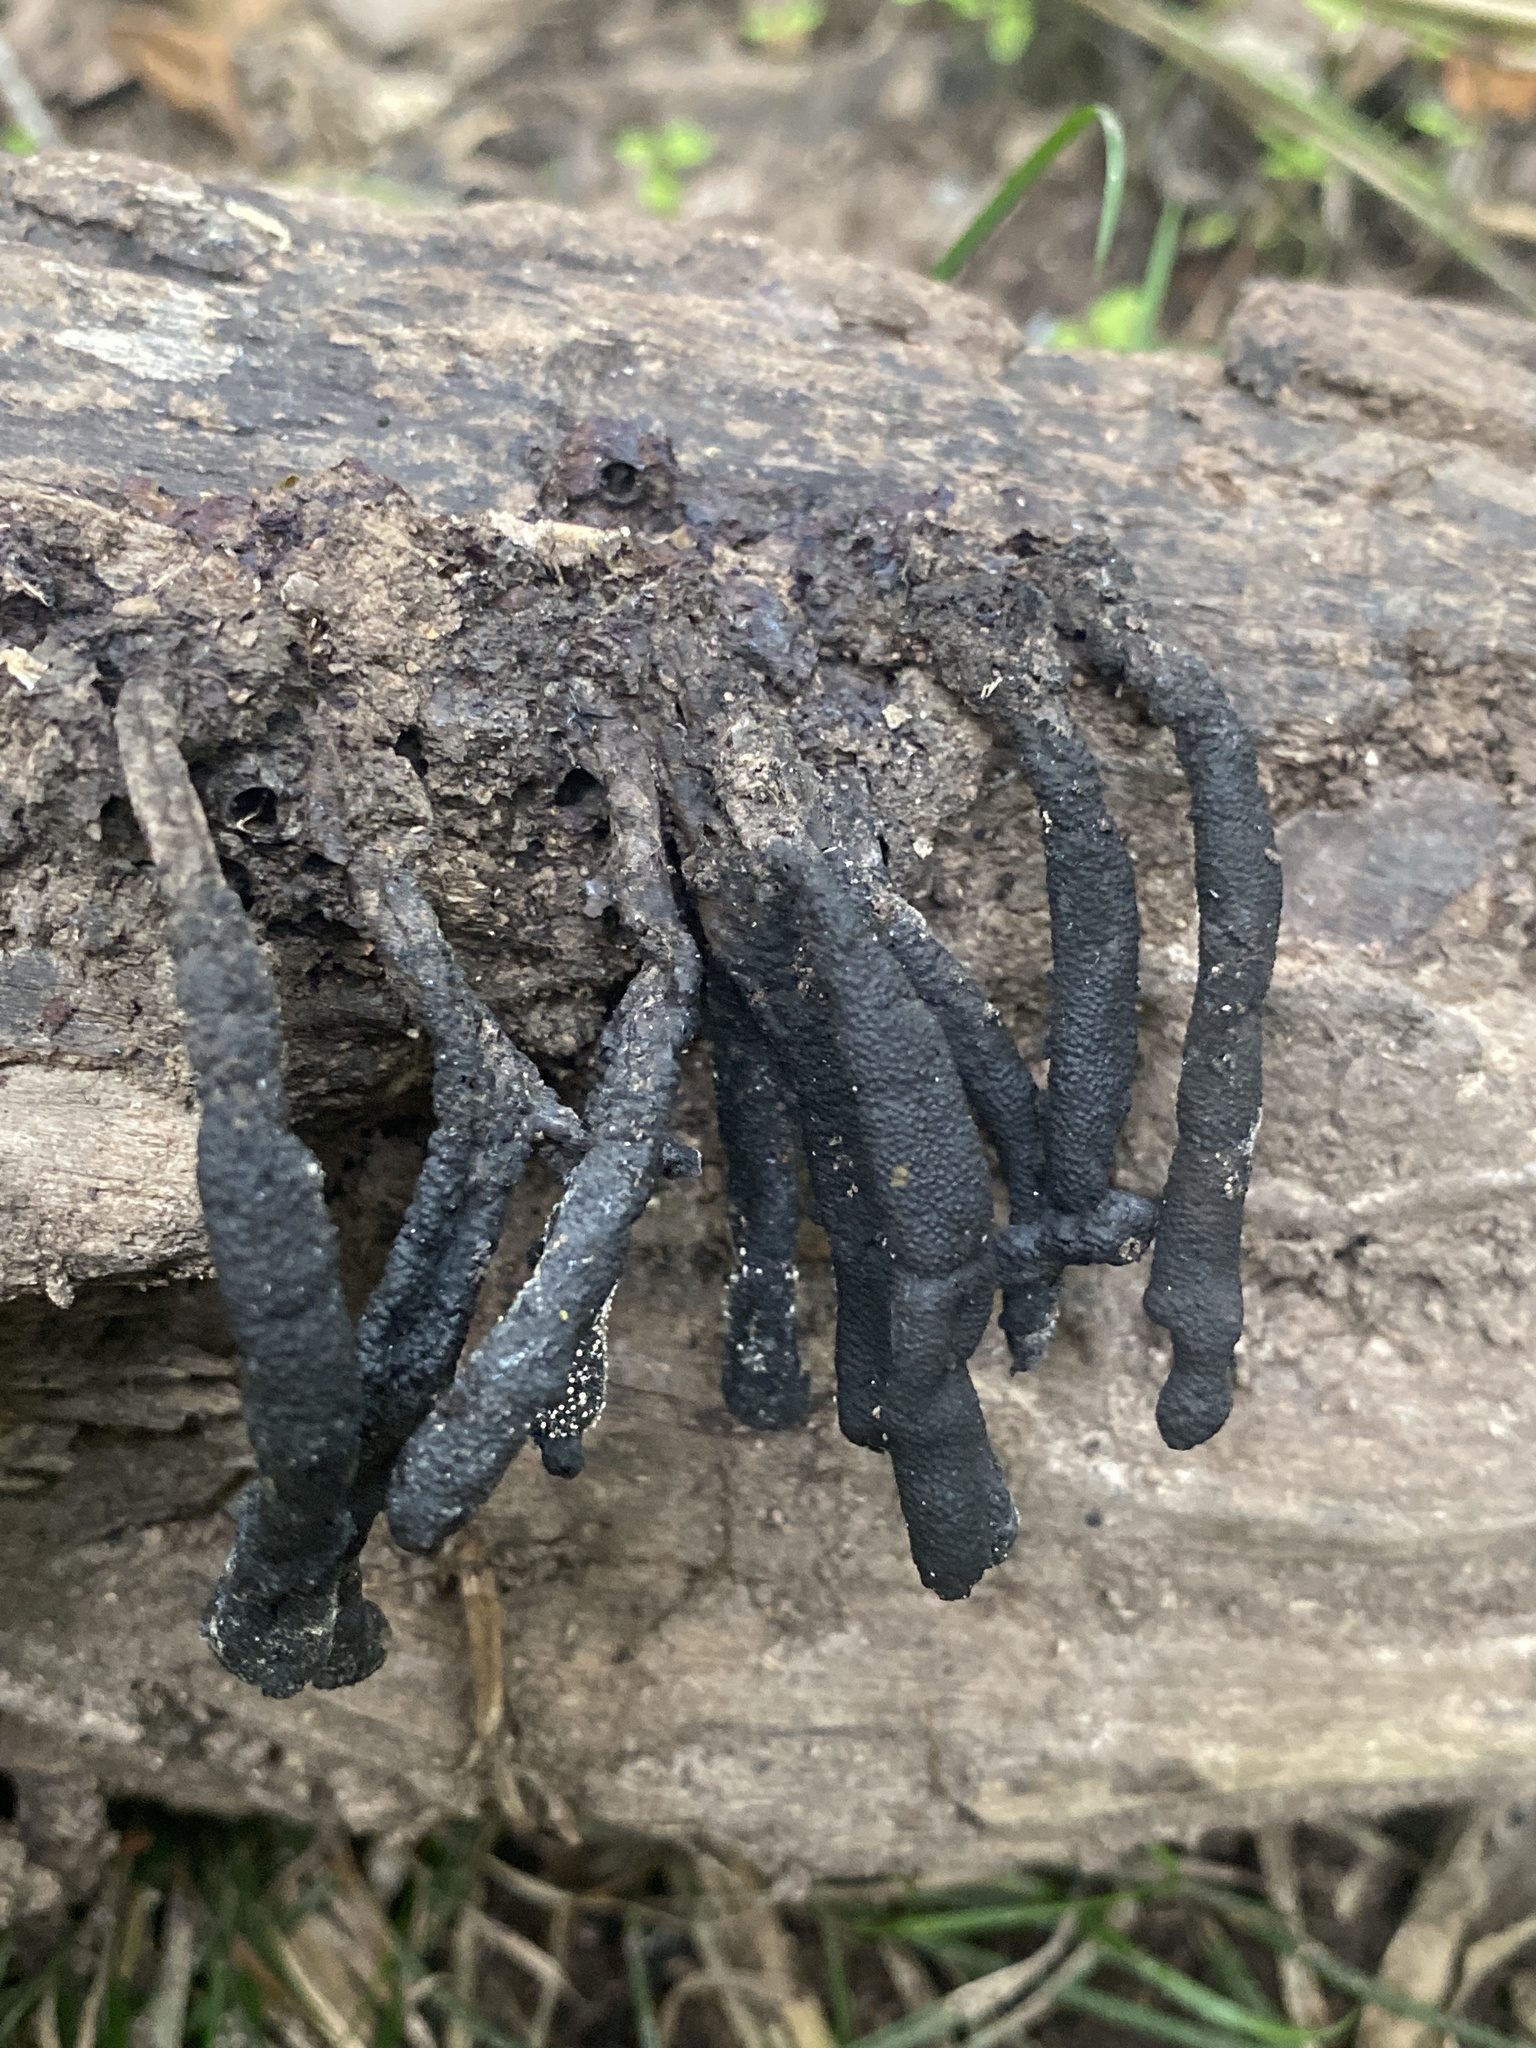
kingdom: Fungi
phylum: Ascomycota
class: Sordariomycetes
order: Xylariales
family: Xylariaceae
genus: Xylaria
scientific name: Xylaria polymorpha
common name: Dead man's fingers
